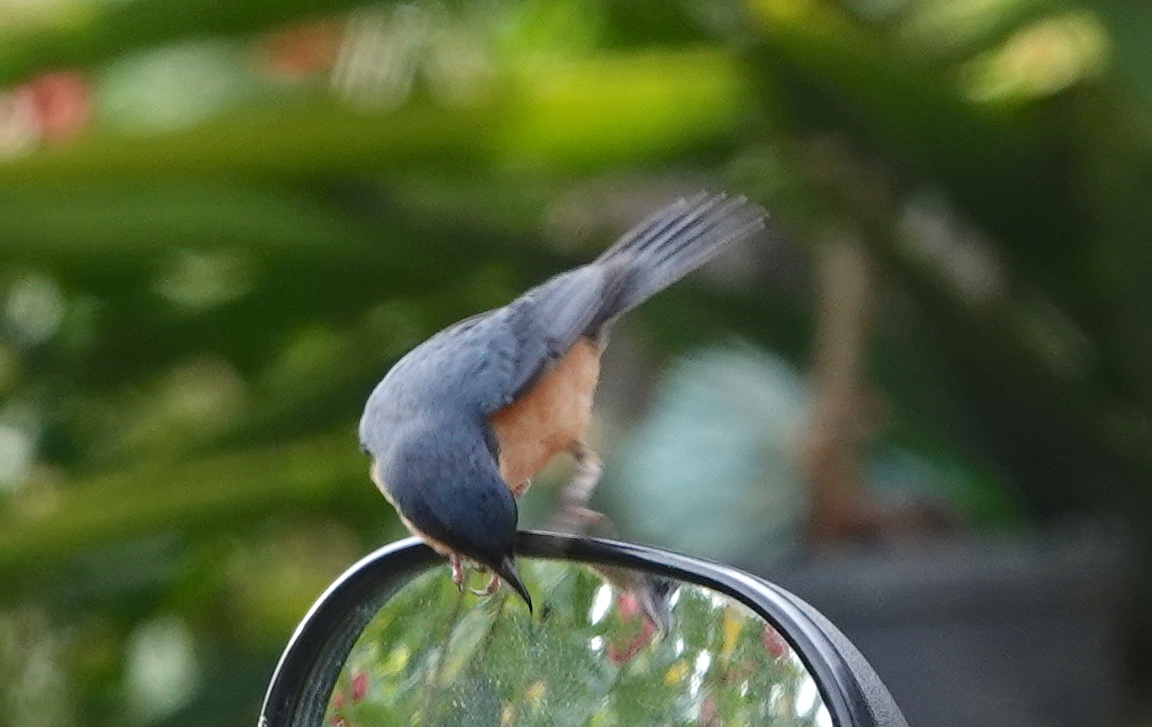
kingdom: Animalia
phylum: Chordata
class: Aves
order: Passeriformes
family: Thraupidae
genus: Diglossa
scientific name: Diglossa sittoides
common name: Rusty flowerpiercer
